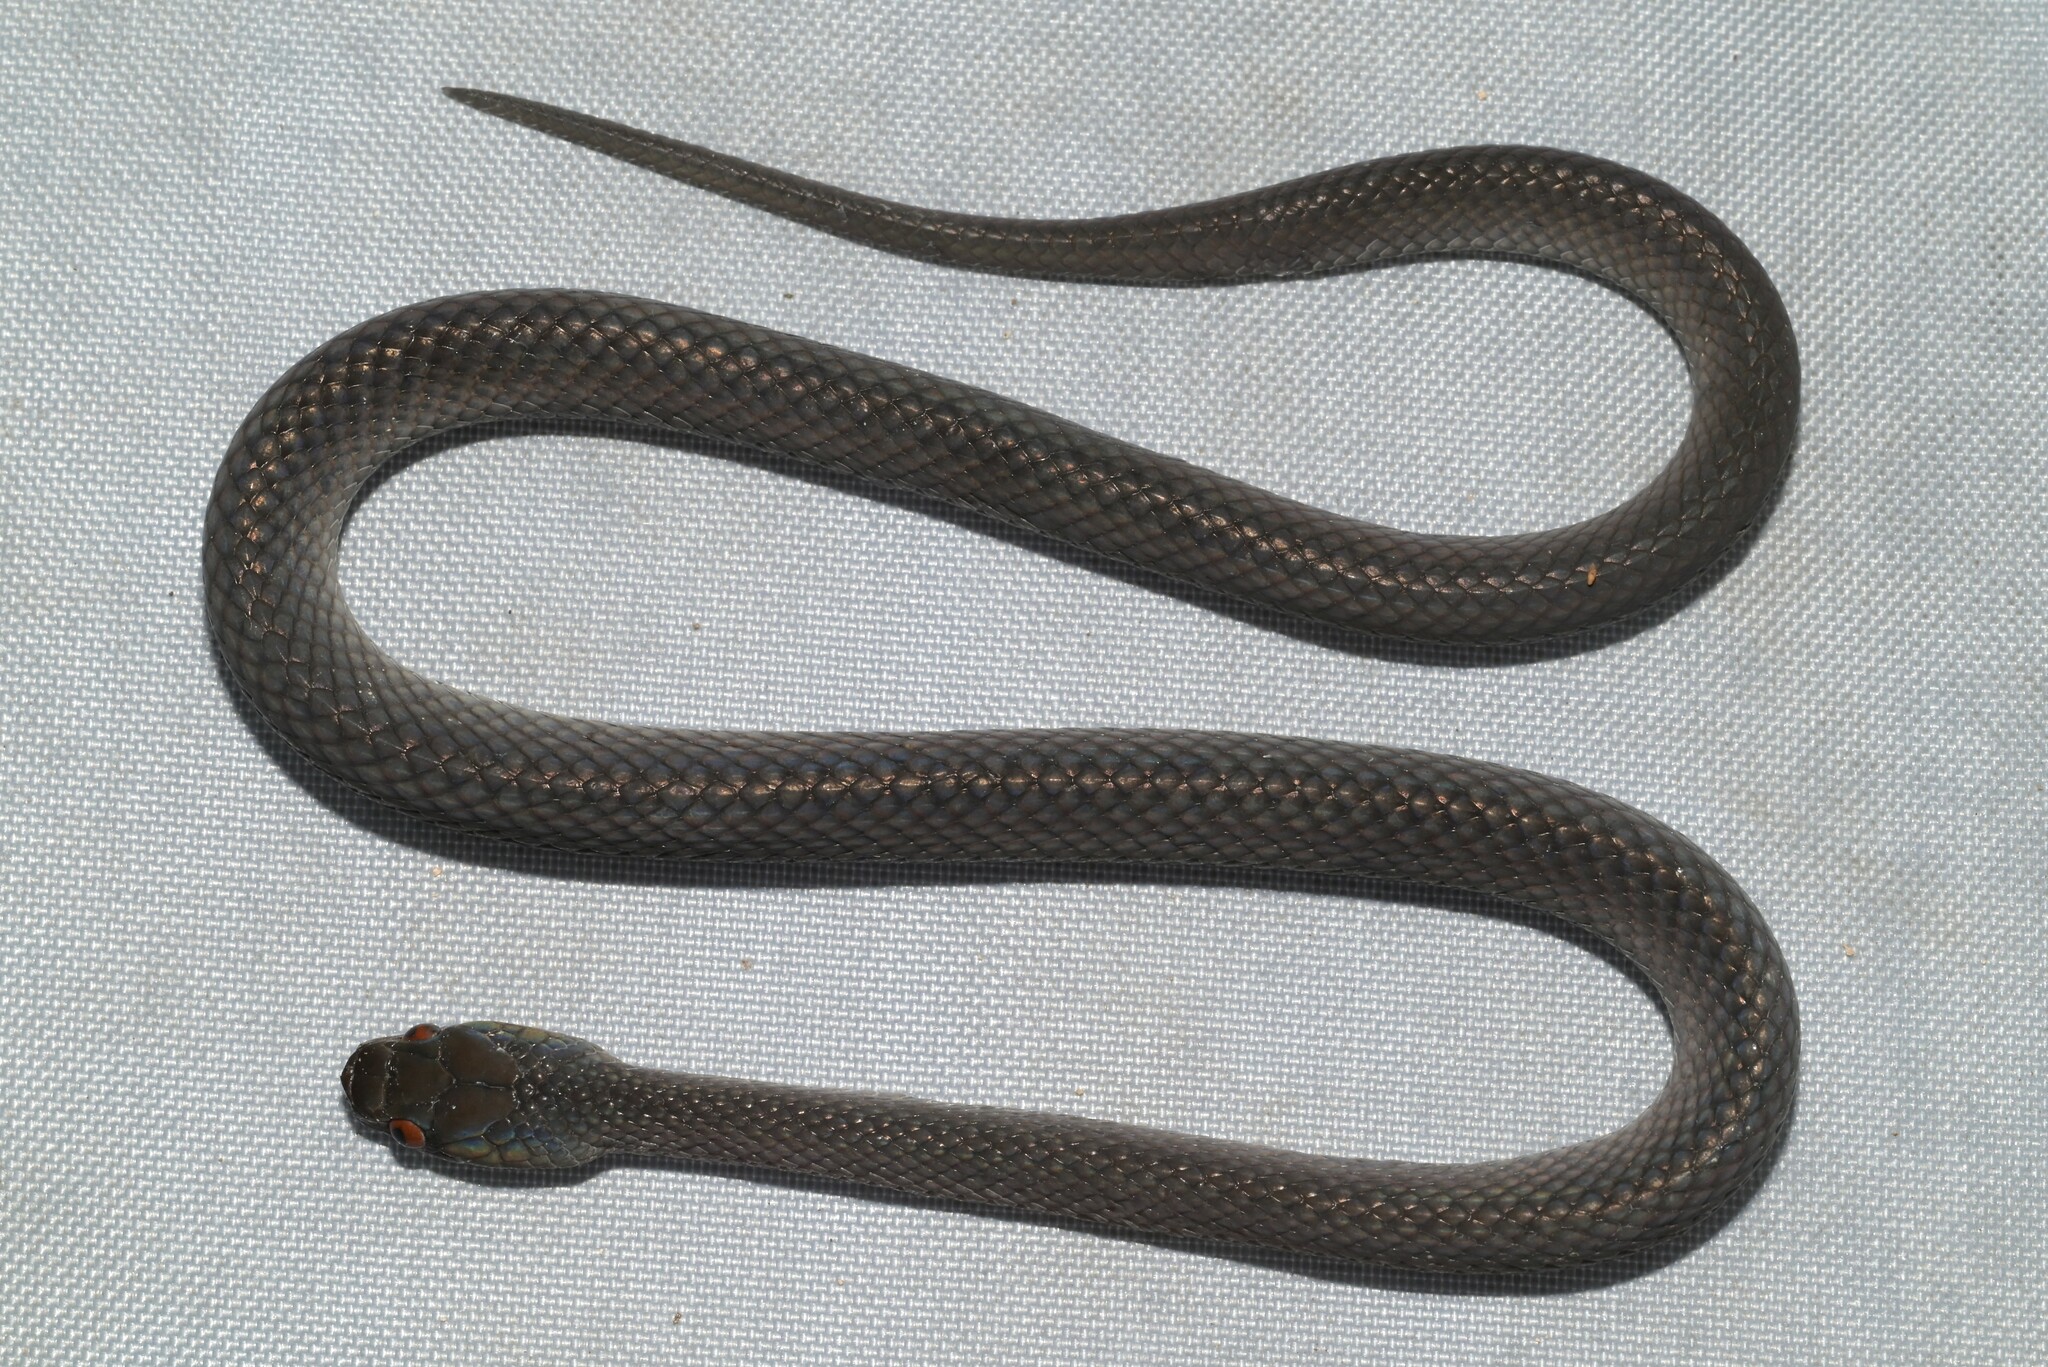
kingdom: Animalia
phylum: Chordata
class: Squamata
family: Colubridae
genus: Crotaphopeltis
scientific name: Crotaphopeltis tornieri
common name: Tornier's cat snake
